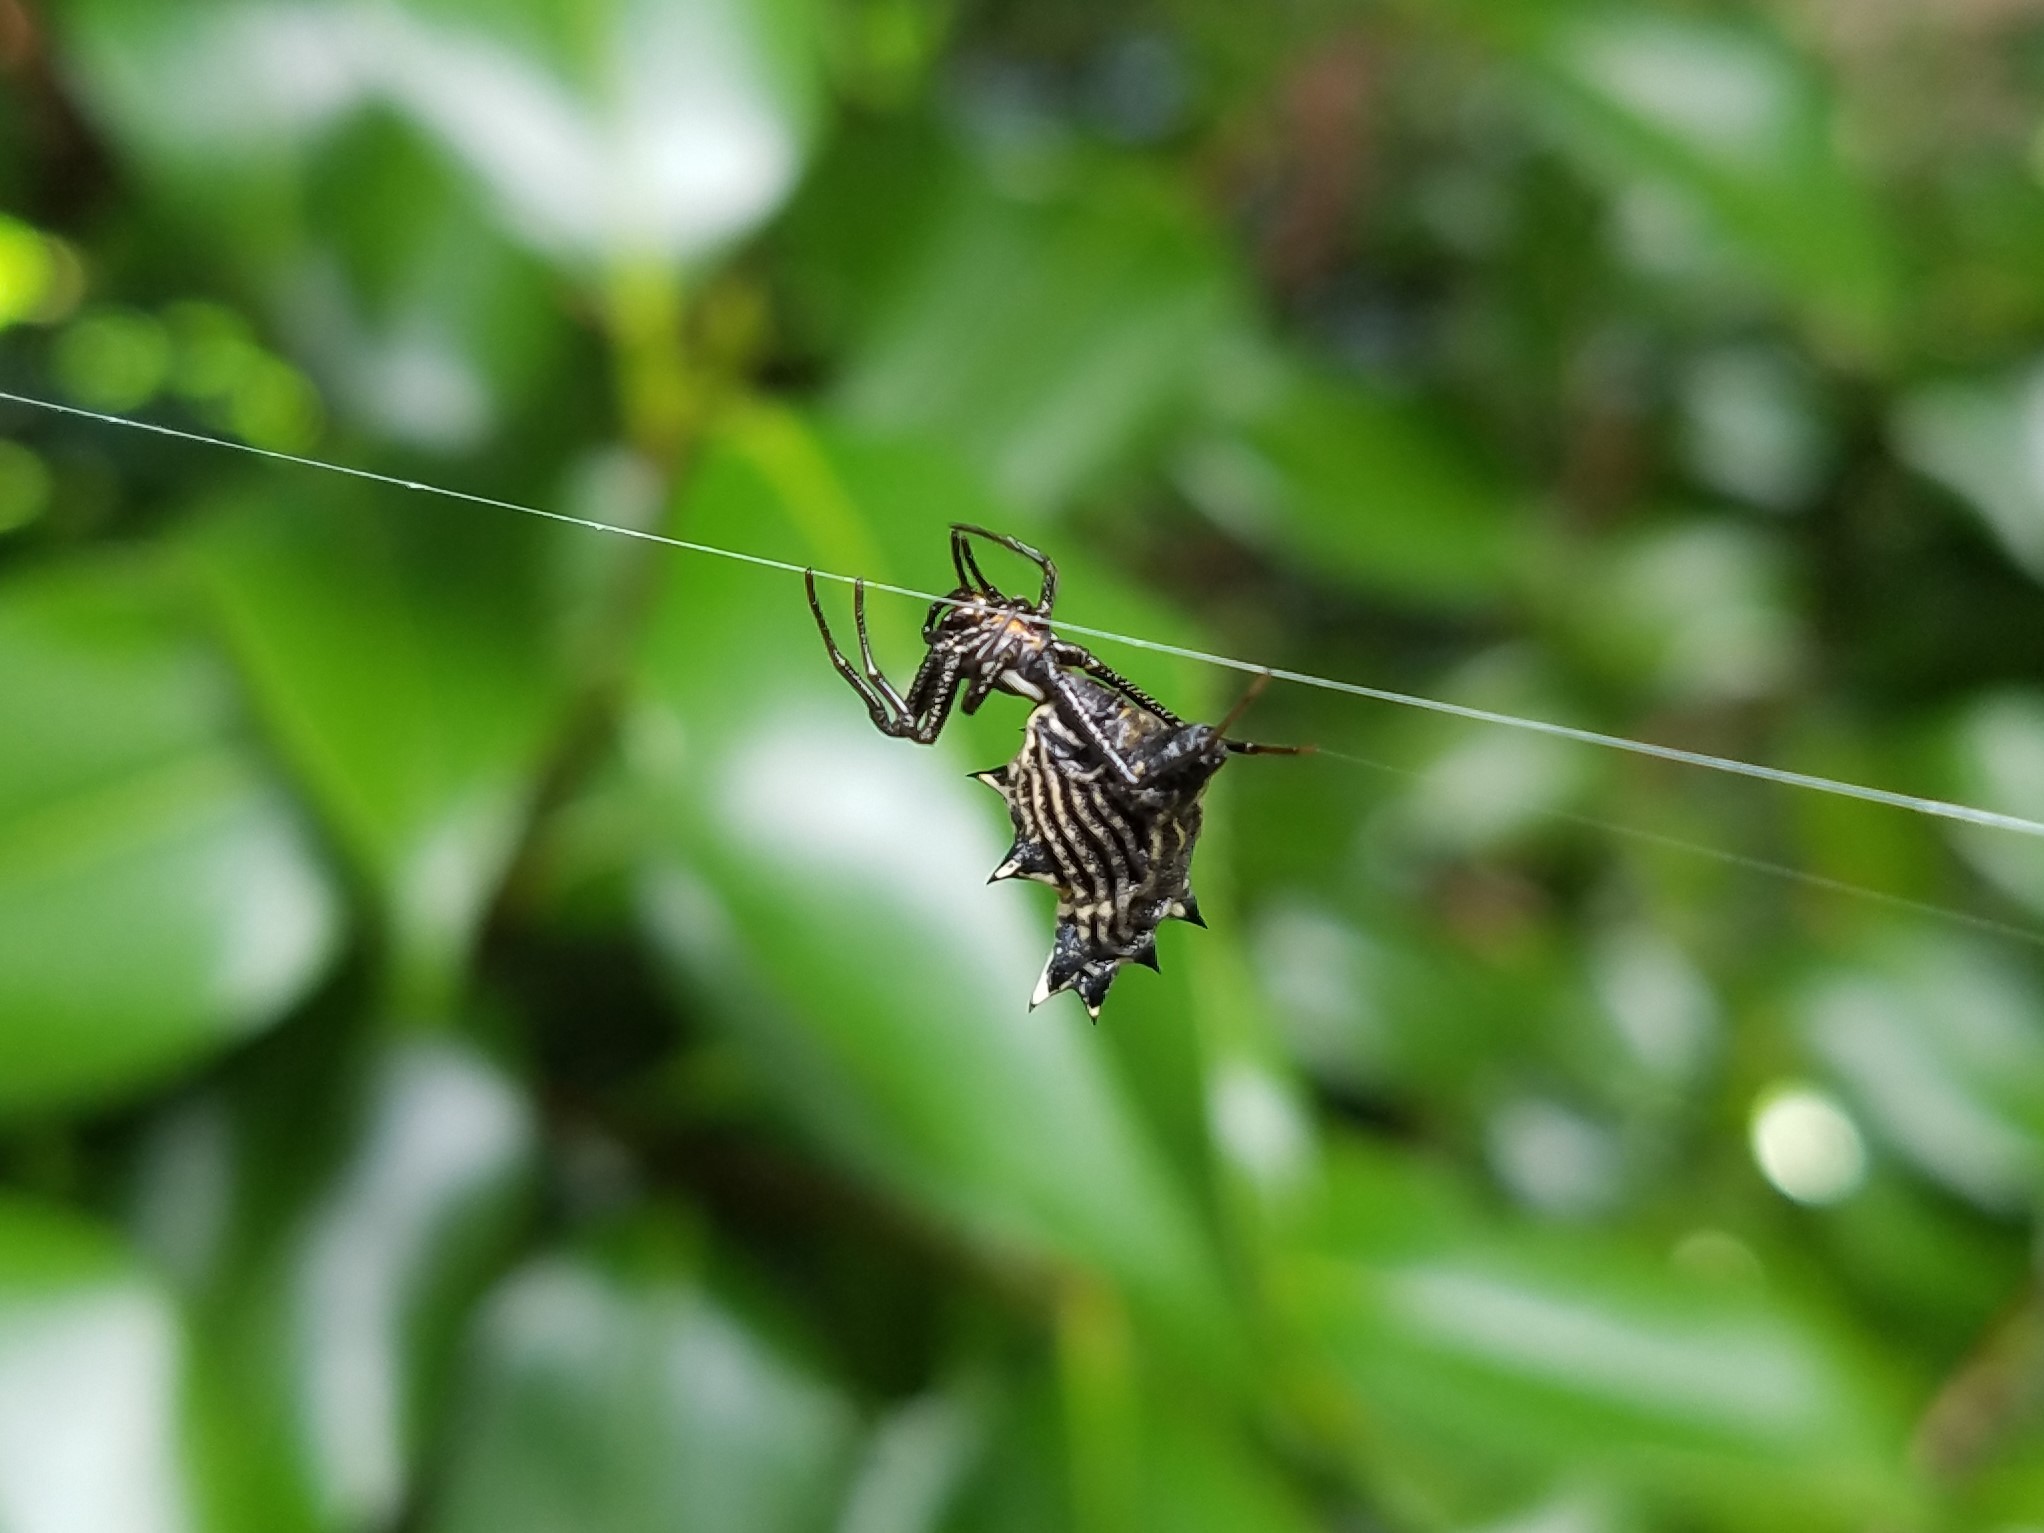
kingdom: Animalia
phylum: Arthropoda
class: Arachnida
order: Araneae
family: Araneidae
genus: Micrathena
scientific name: Micrathena gracilis
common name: Orb weavers
